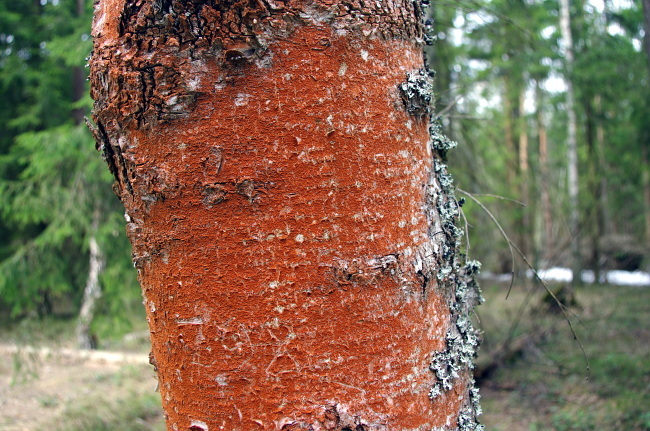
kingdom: Plantae
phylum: Chlorophyta
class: Ulvophyceae
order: Trentepohliales
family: Trentepohliaceae
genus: Trentepohlia
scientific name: Trentepohlia
